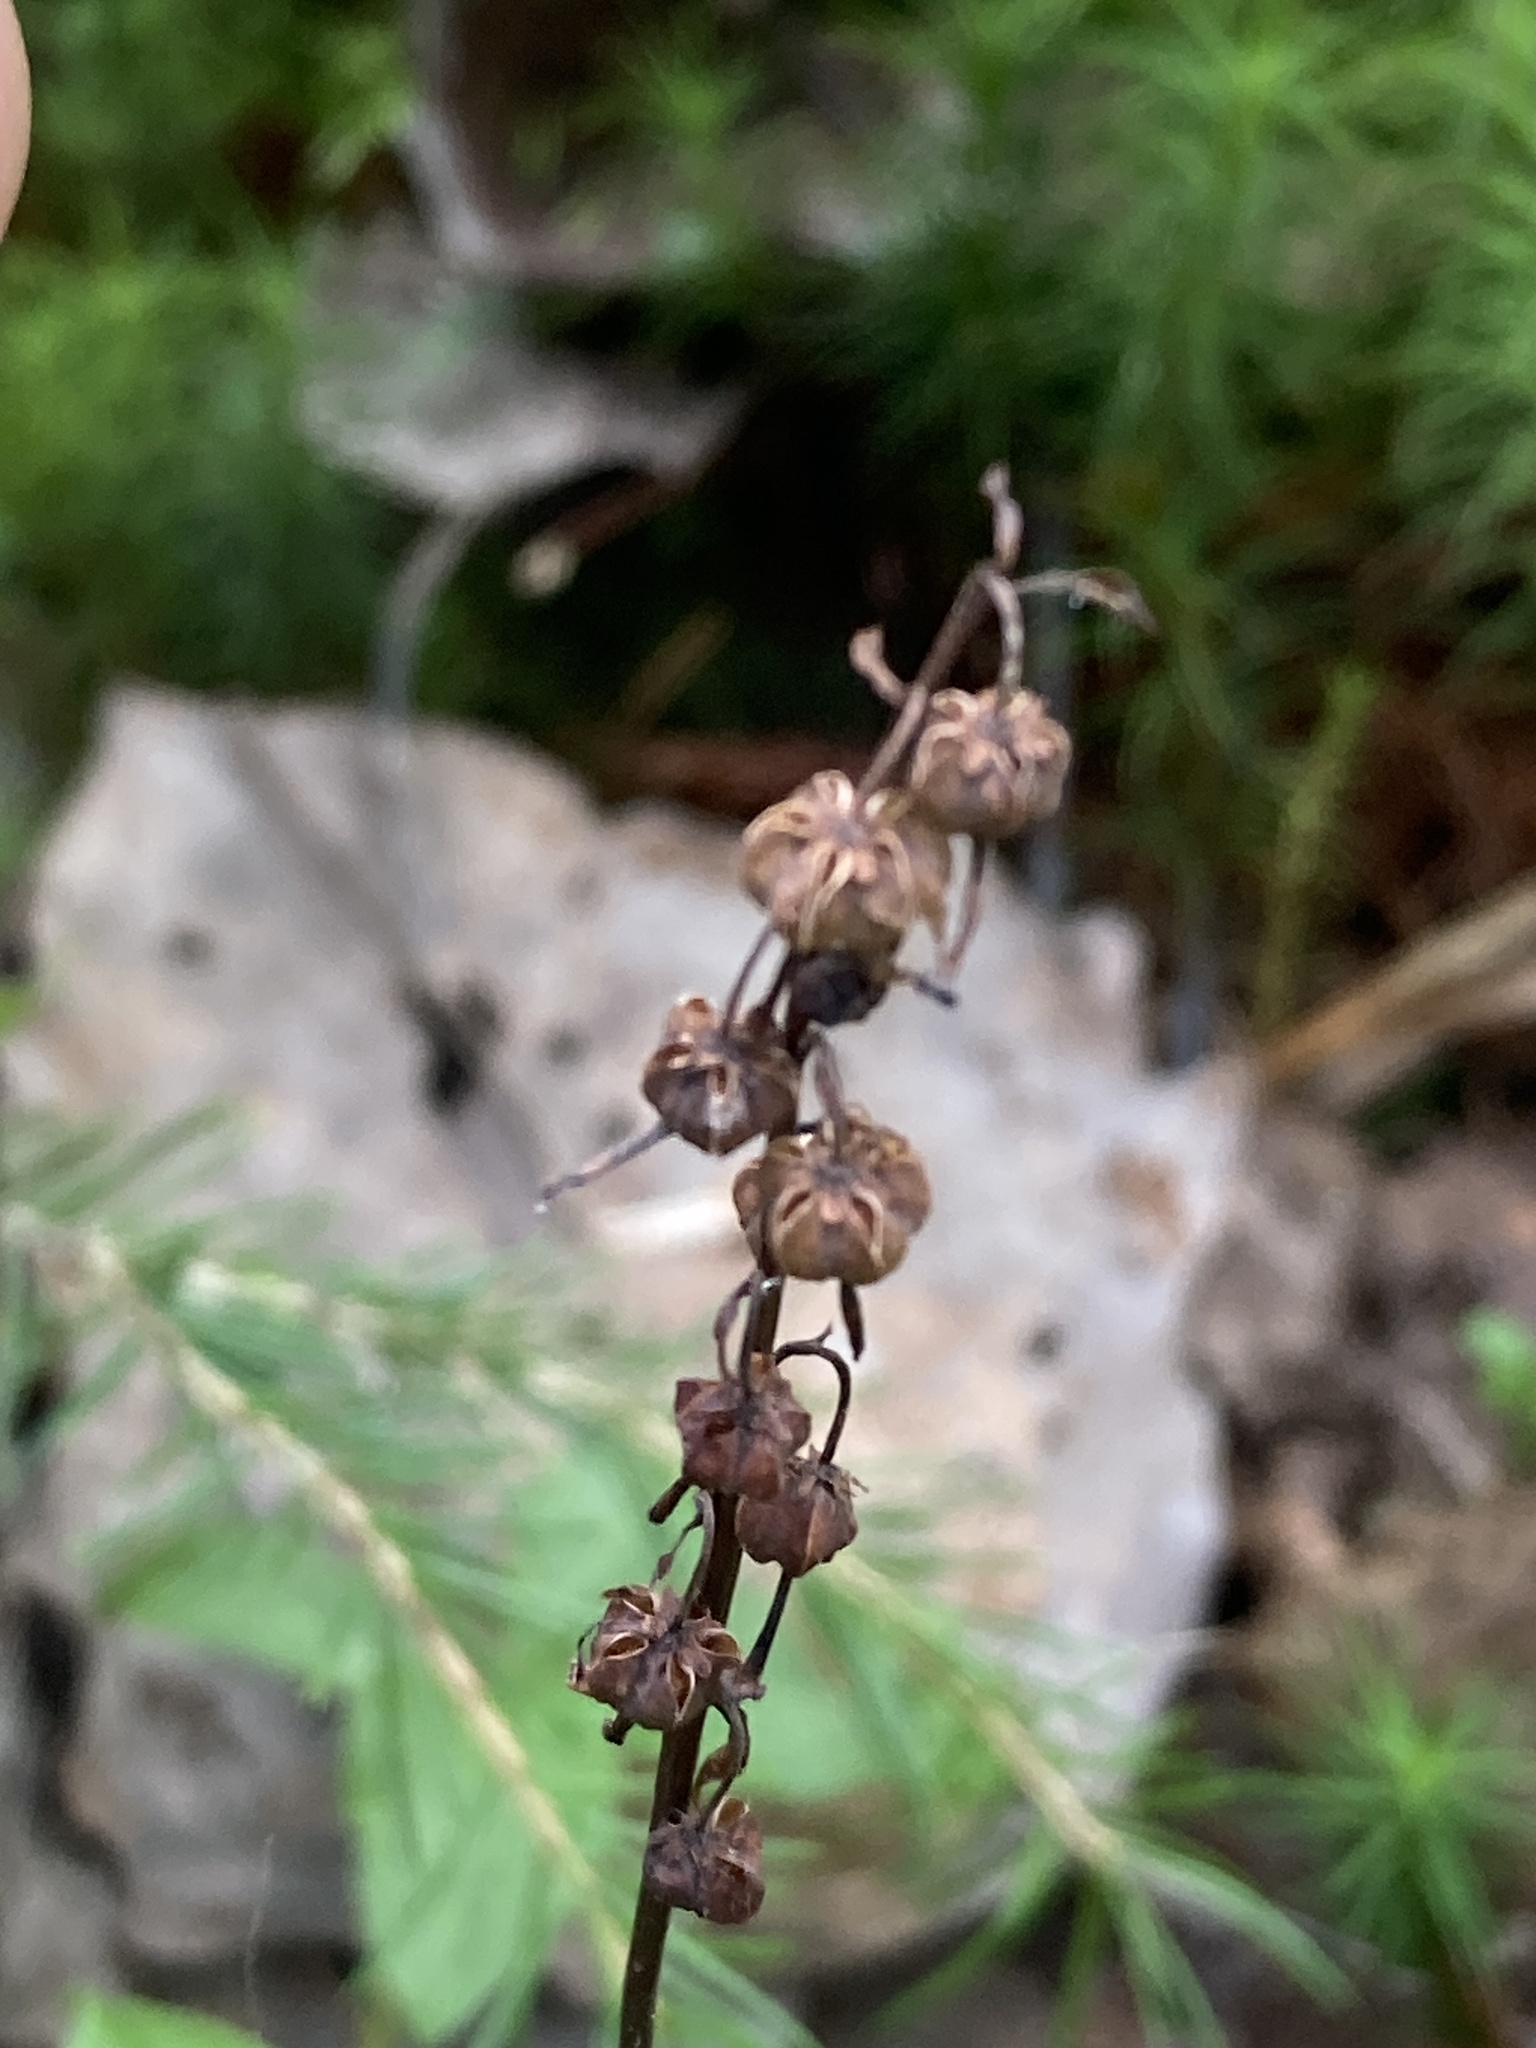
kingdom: Plantae
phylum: Tracheophyta
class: Magnoliopsida
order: Ericales
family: Ericaceae
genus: Orthilia
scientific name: Orthilia secunda
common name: One-sided orthilia
